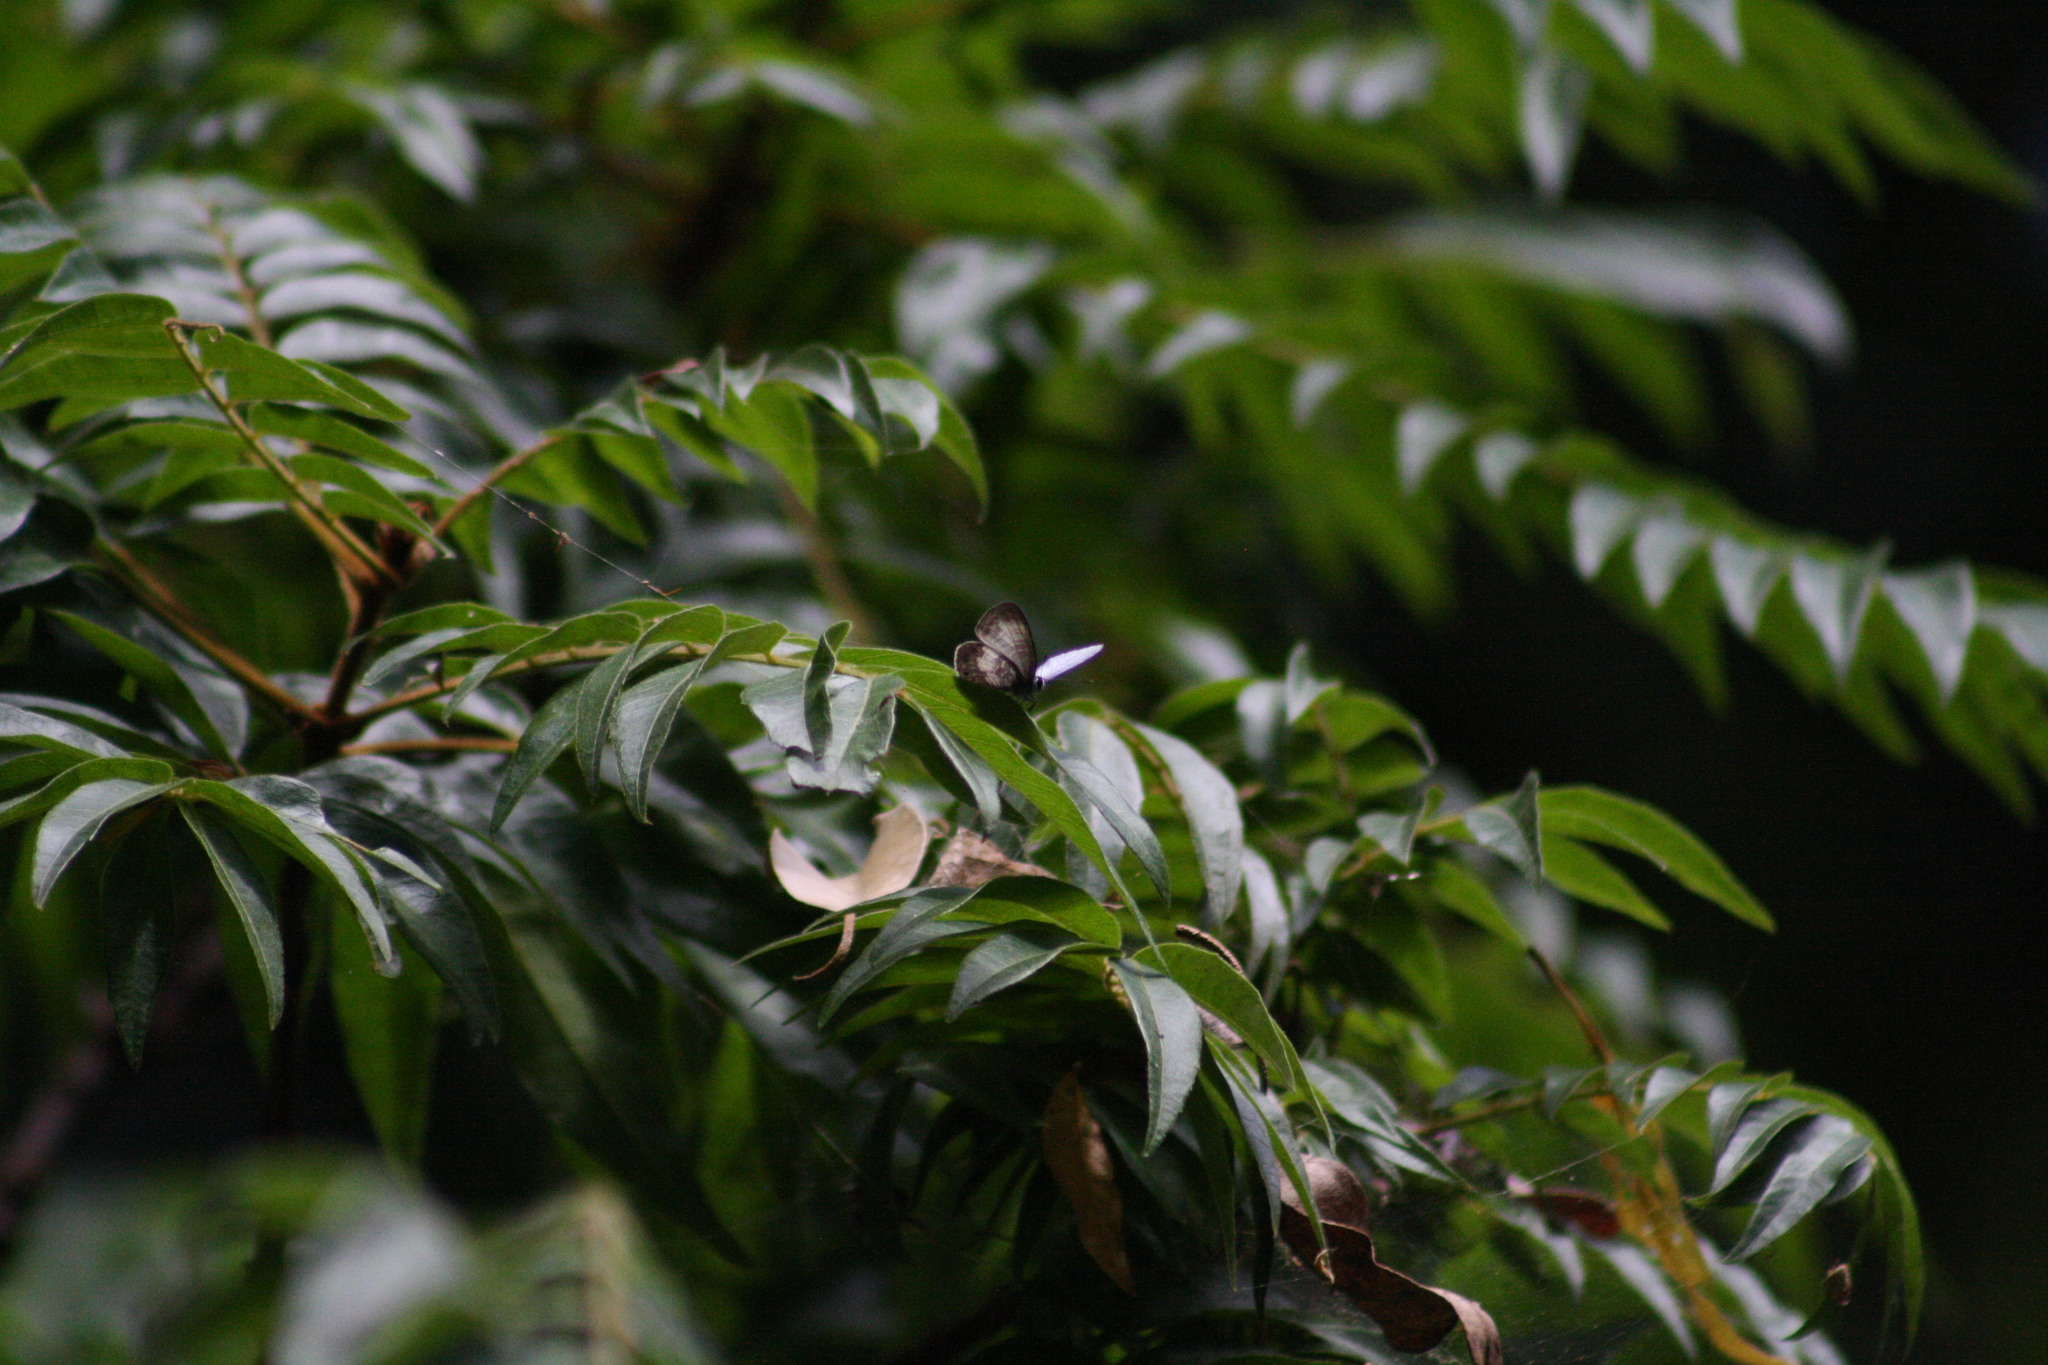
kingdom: Animalia
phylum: Arthropoda
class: Insecta
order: Lepidoptera
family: Lycaenidae
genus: Nacaduba
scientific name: Nacaduba kurava
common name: Transparent 6-line blue
